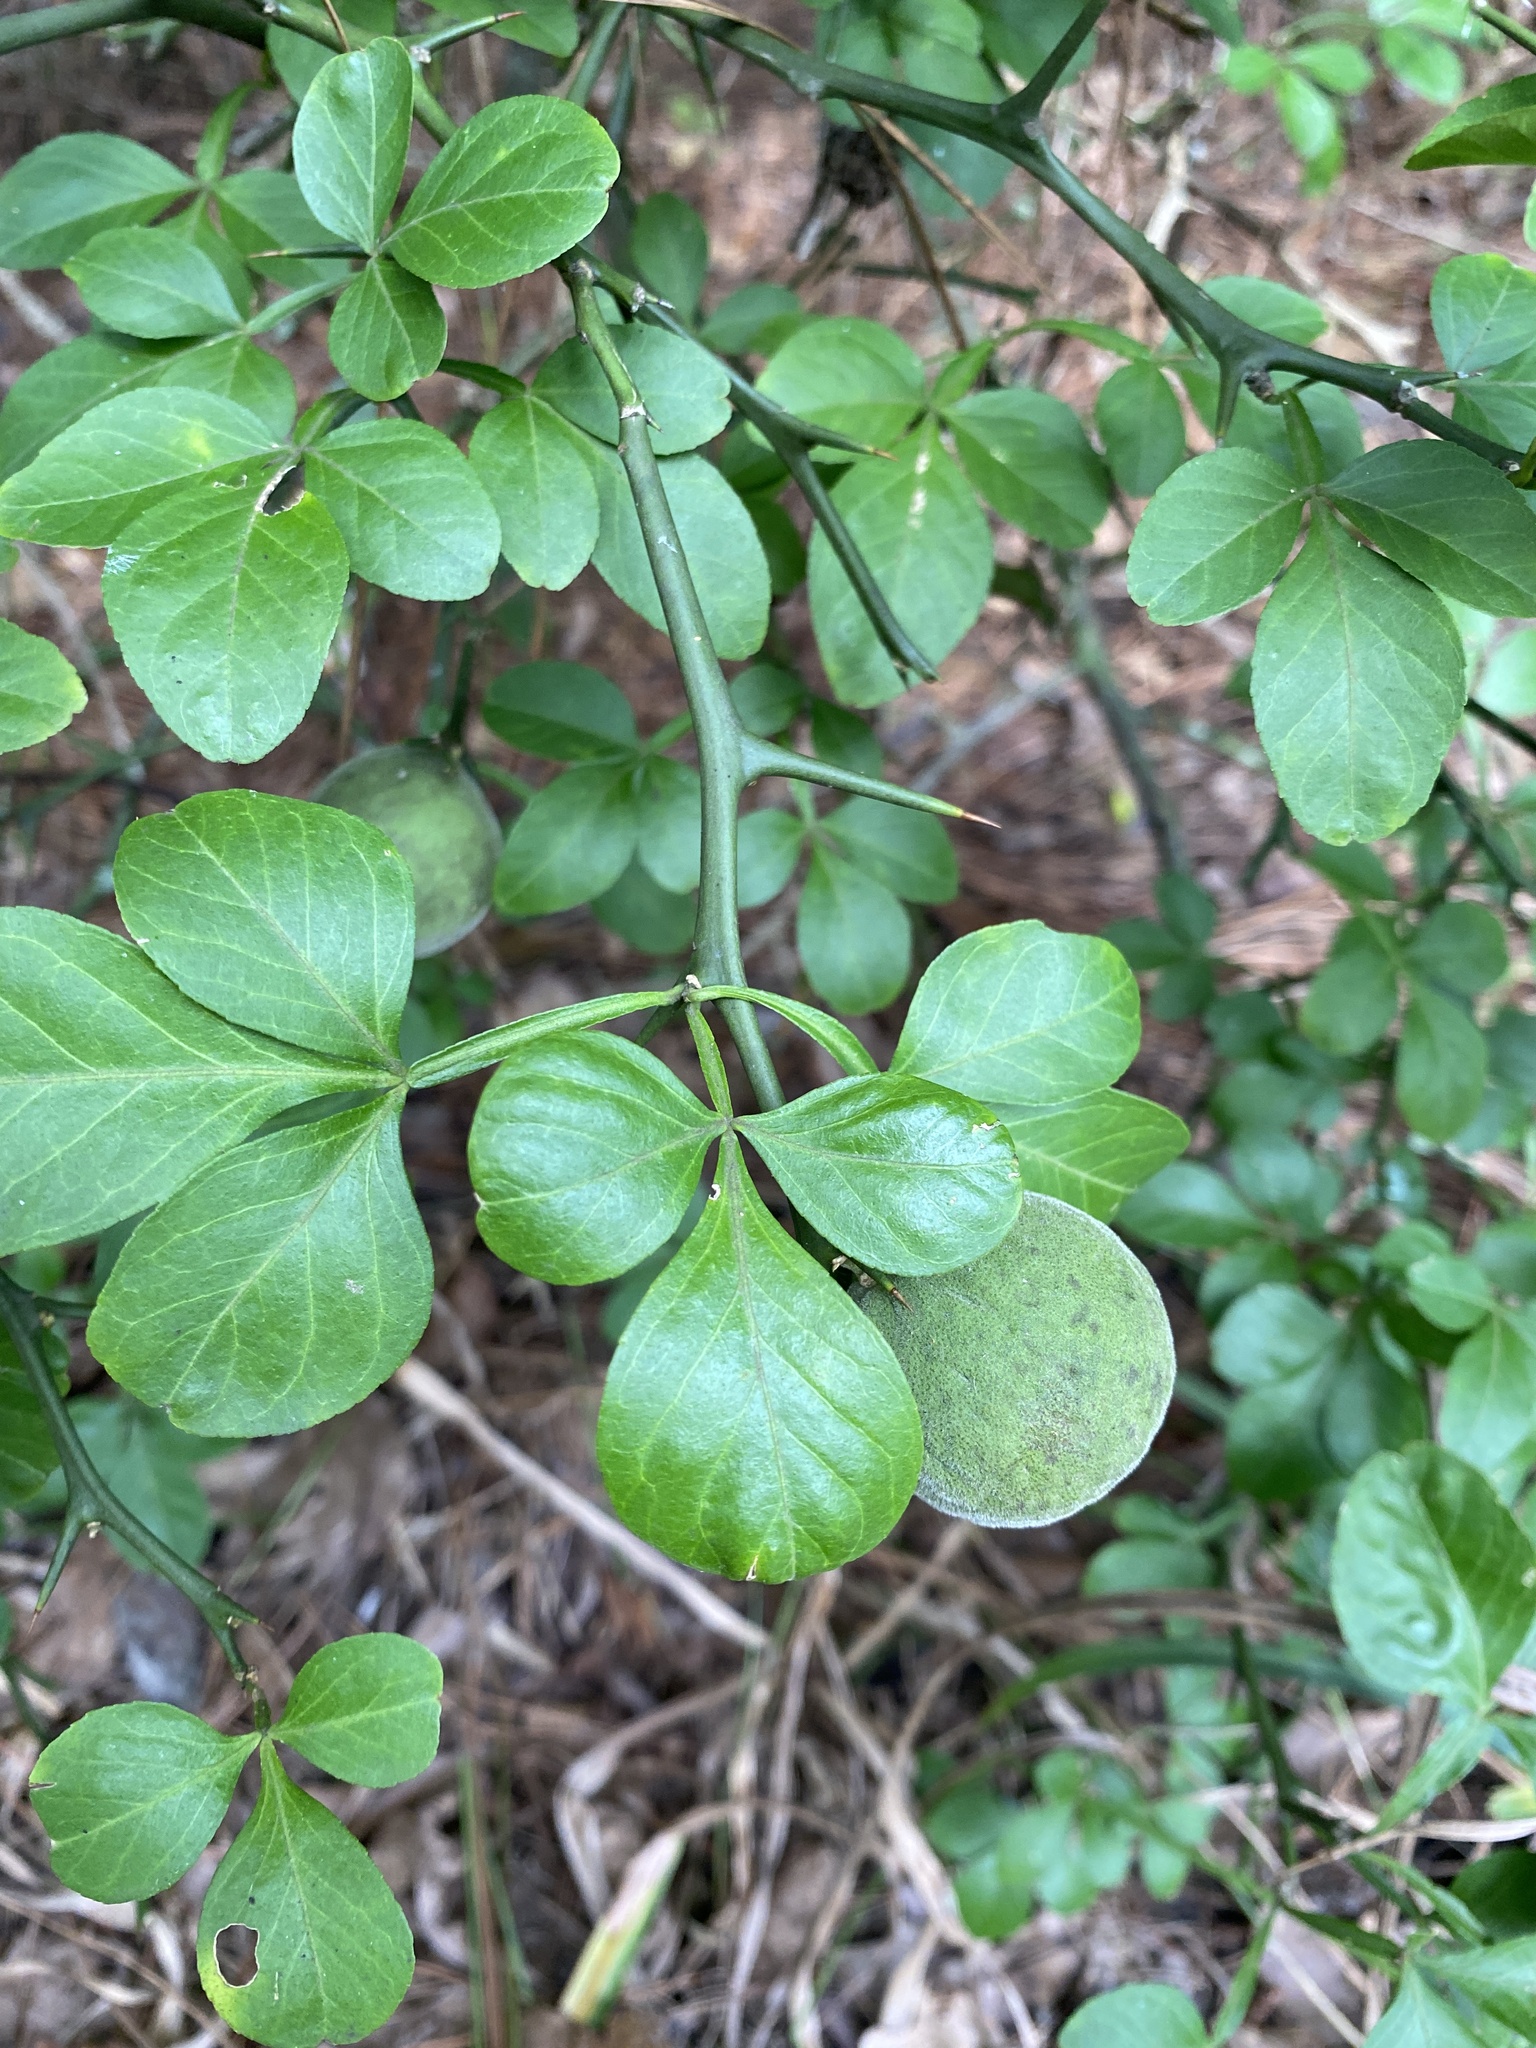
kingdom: Plantae
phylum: Tracheophyta
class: Magnoliopsida
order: Sapindales
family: Rutaceae
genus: Citrus
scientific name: Citrus trifoliata
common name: Japanese bitter-orange
